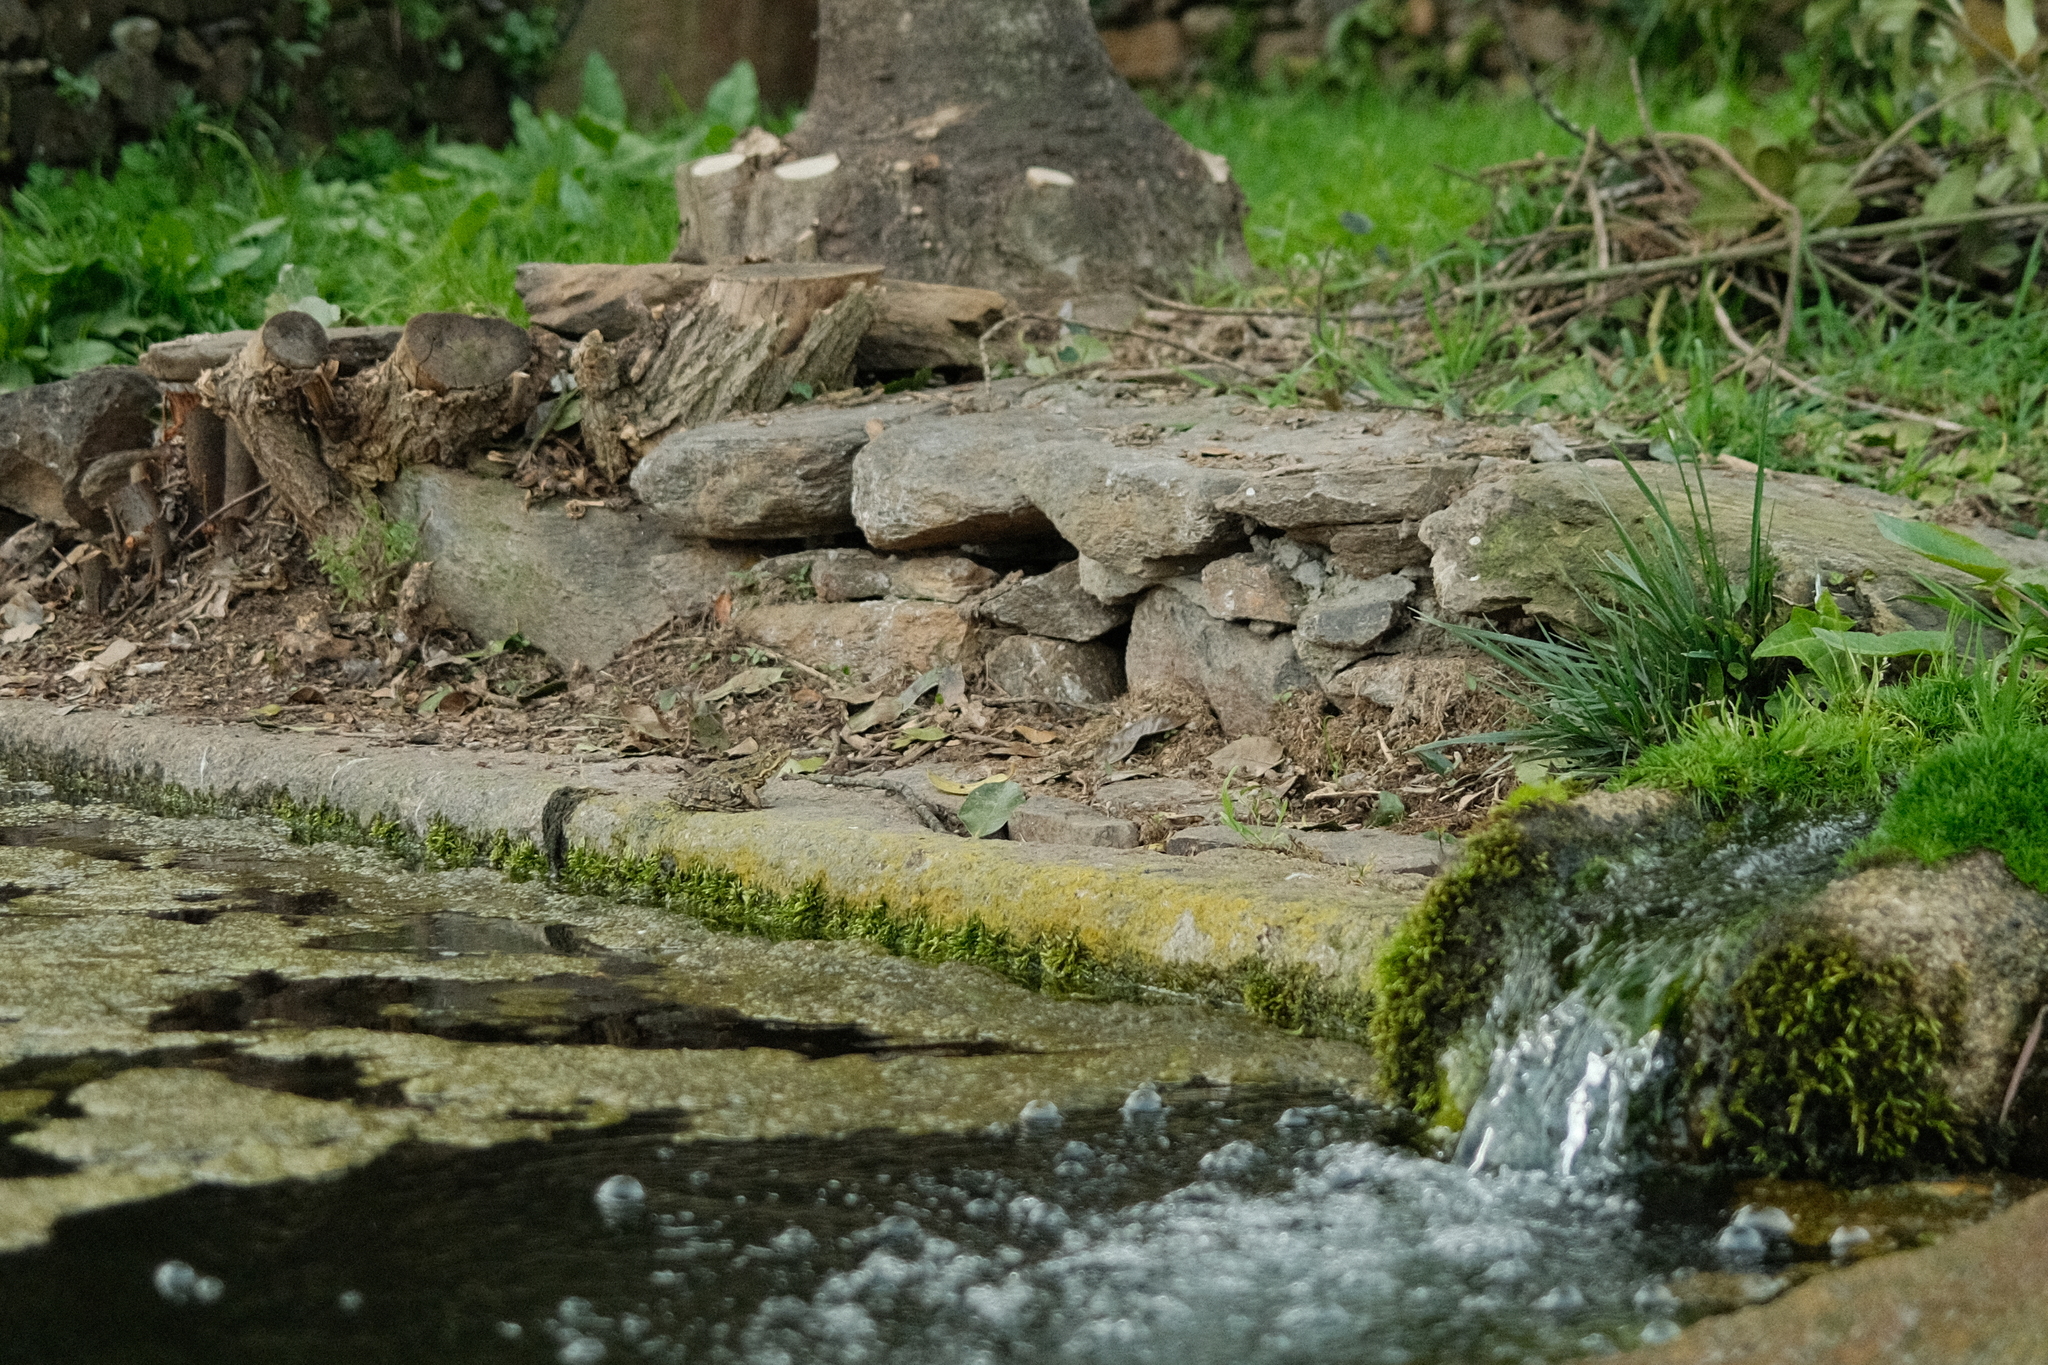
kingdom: Animalia
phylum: Chordata
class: Amphibia
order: Anura
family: Ranidae
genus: Pelophylax
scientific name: Pelophylax perezi
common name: Perez's frog
